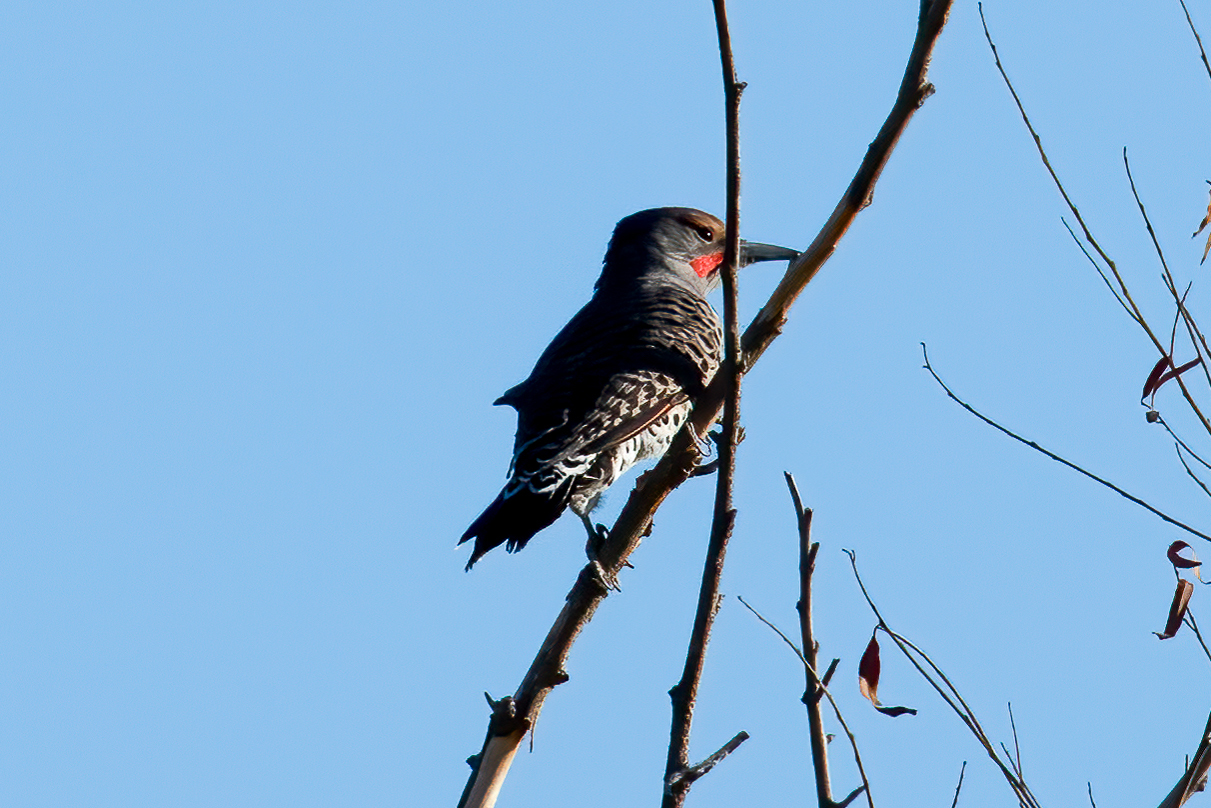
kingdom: Animalia
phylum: Chordata
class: Aves
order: Piciformes
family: Picidae
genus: Colaptes
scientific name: Colaptes auratus
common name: Northern flicker
